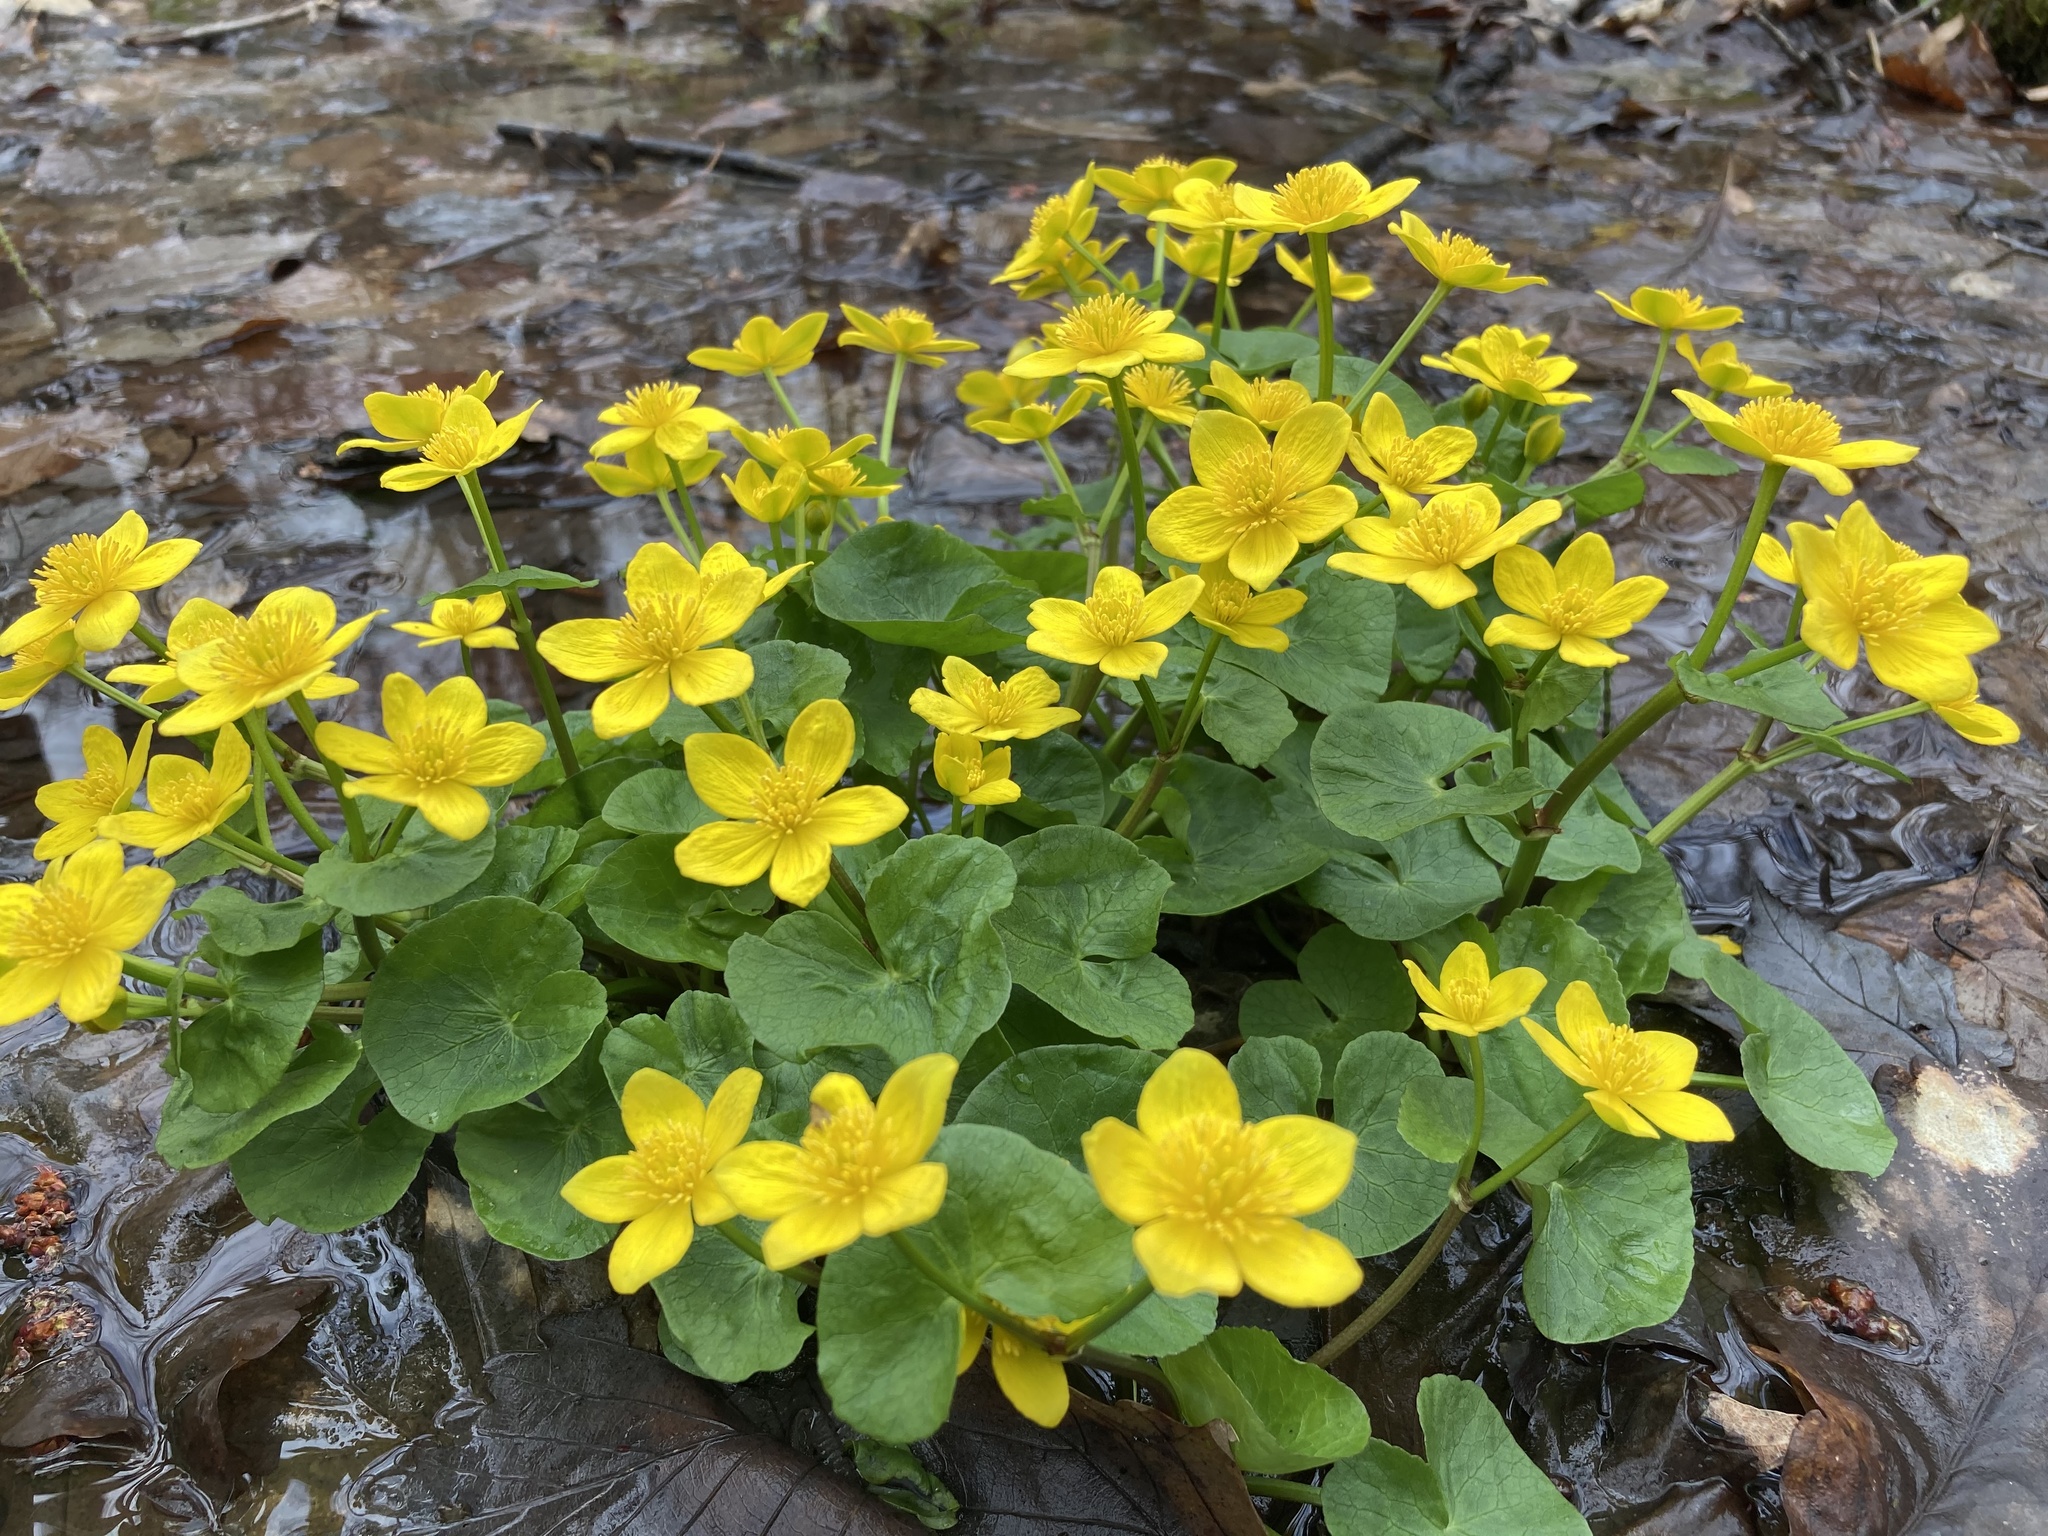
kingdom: Plantae
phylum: Tracheophyta
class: Magnoliopsida
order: Ranunculales
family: Ranunculaceae
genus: Caltha
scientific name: Caltha palustris
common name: Marsh marigold
